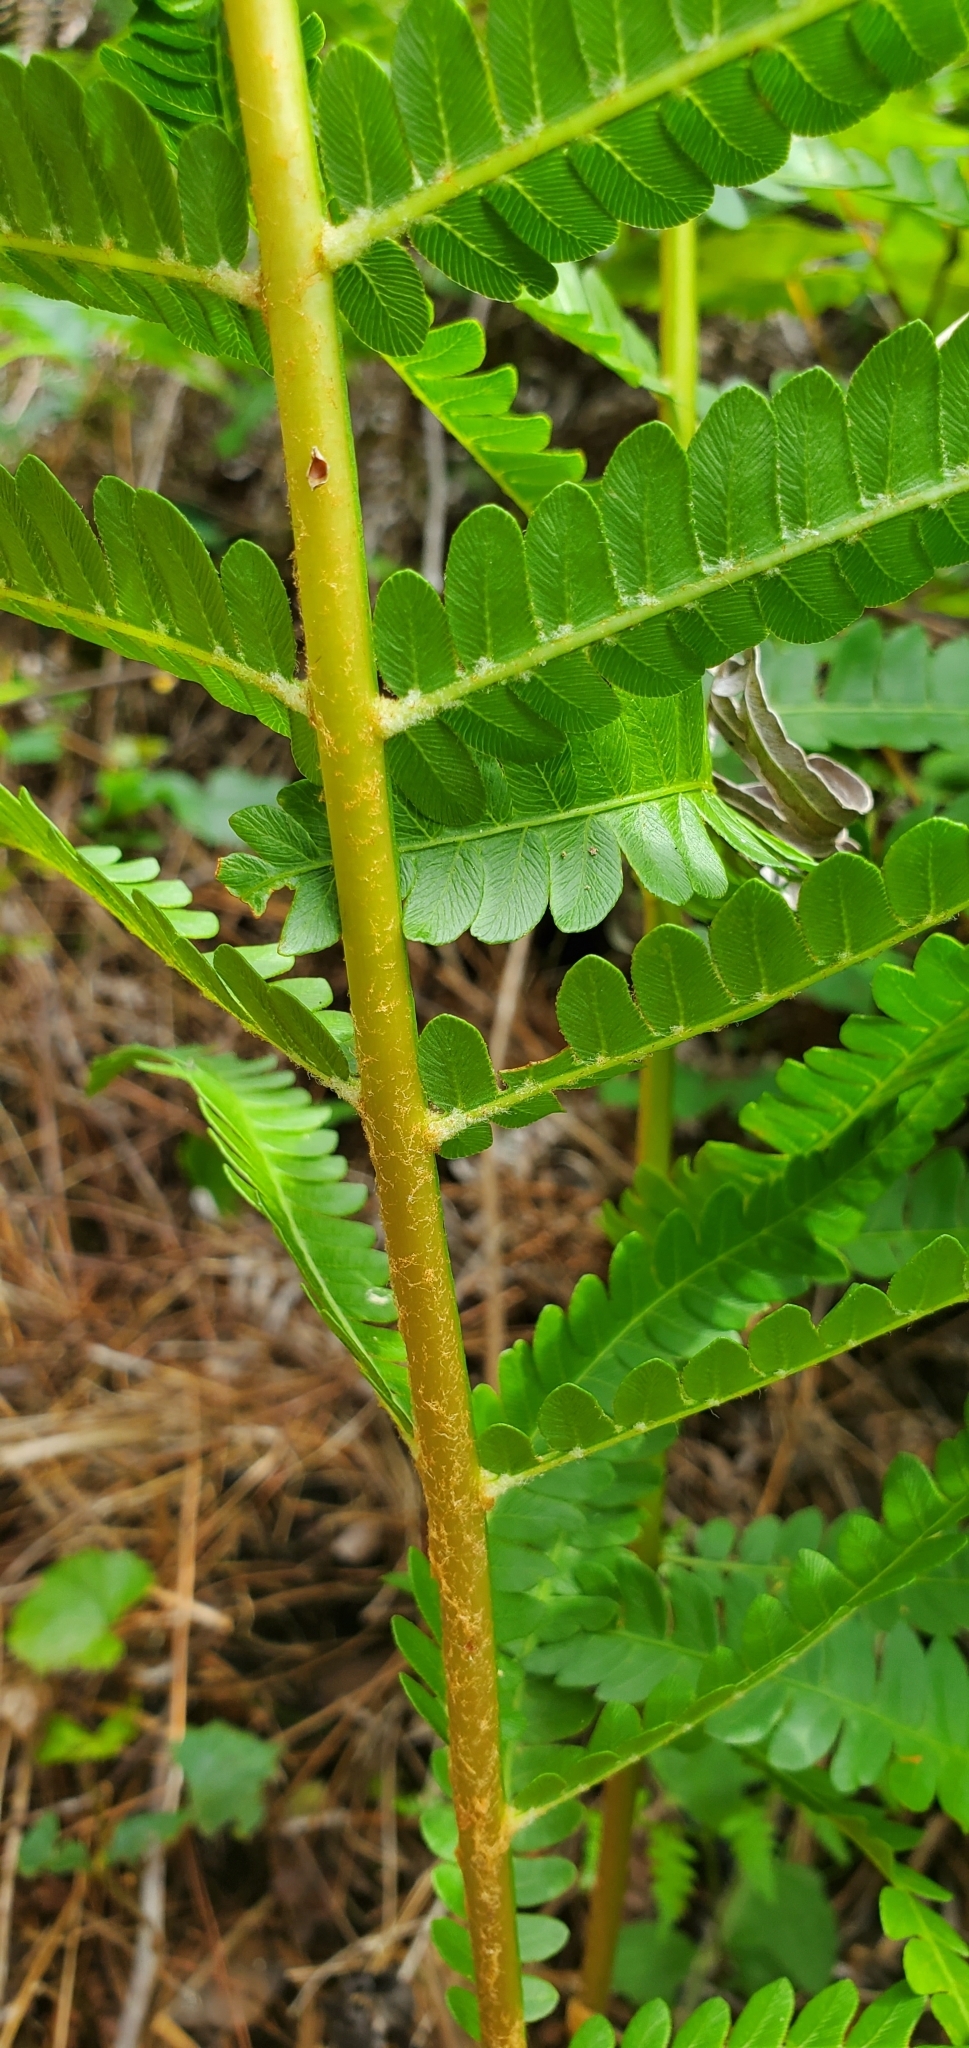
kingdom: Plantae
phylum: Tracheophyta
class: Polypodiopsida
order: Osmundales
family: Osmundaceae
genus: Osmundastrum
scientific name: Osmundastrum cinnamomeum
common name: Cinnamon fern
